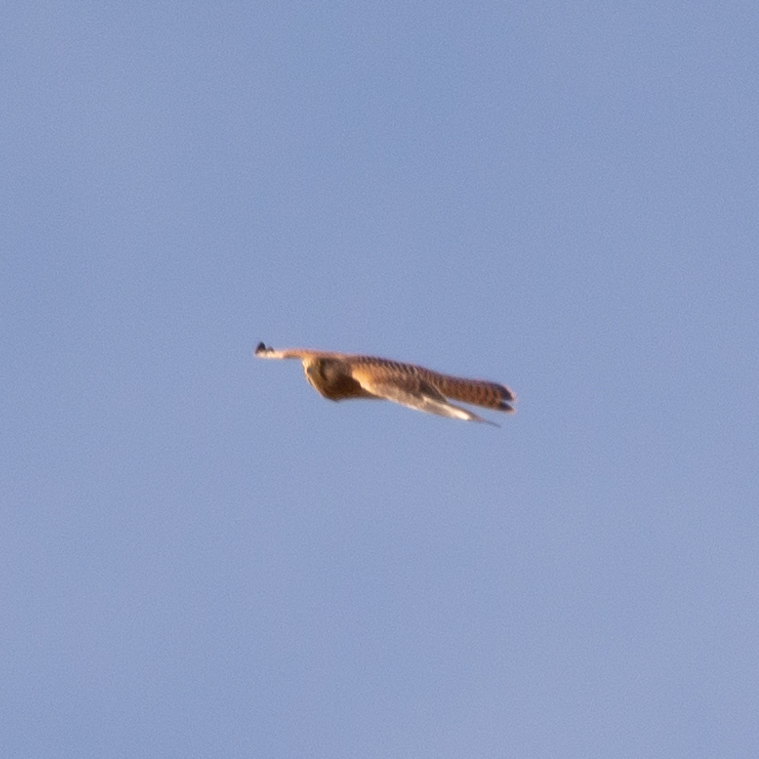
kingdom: Animalia
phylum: Chordata
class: Aves
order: Falconiformes
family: Falconidae
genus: Falco
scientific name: Falco tinnunculus
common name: Common kestrel
